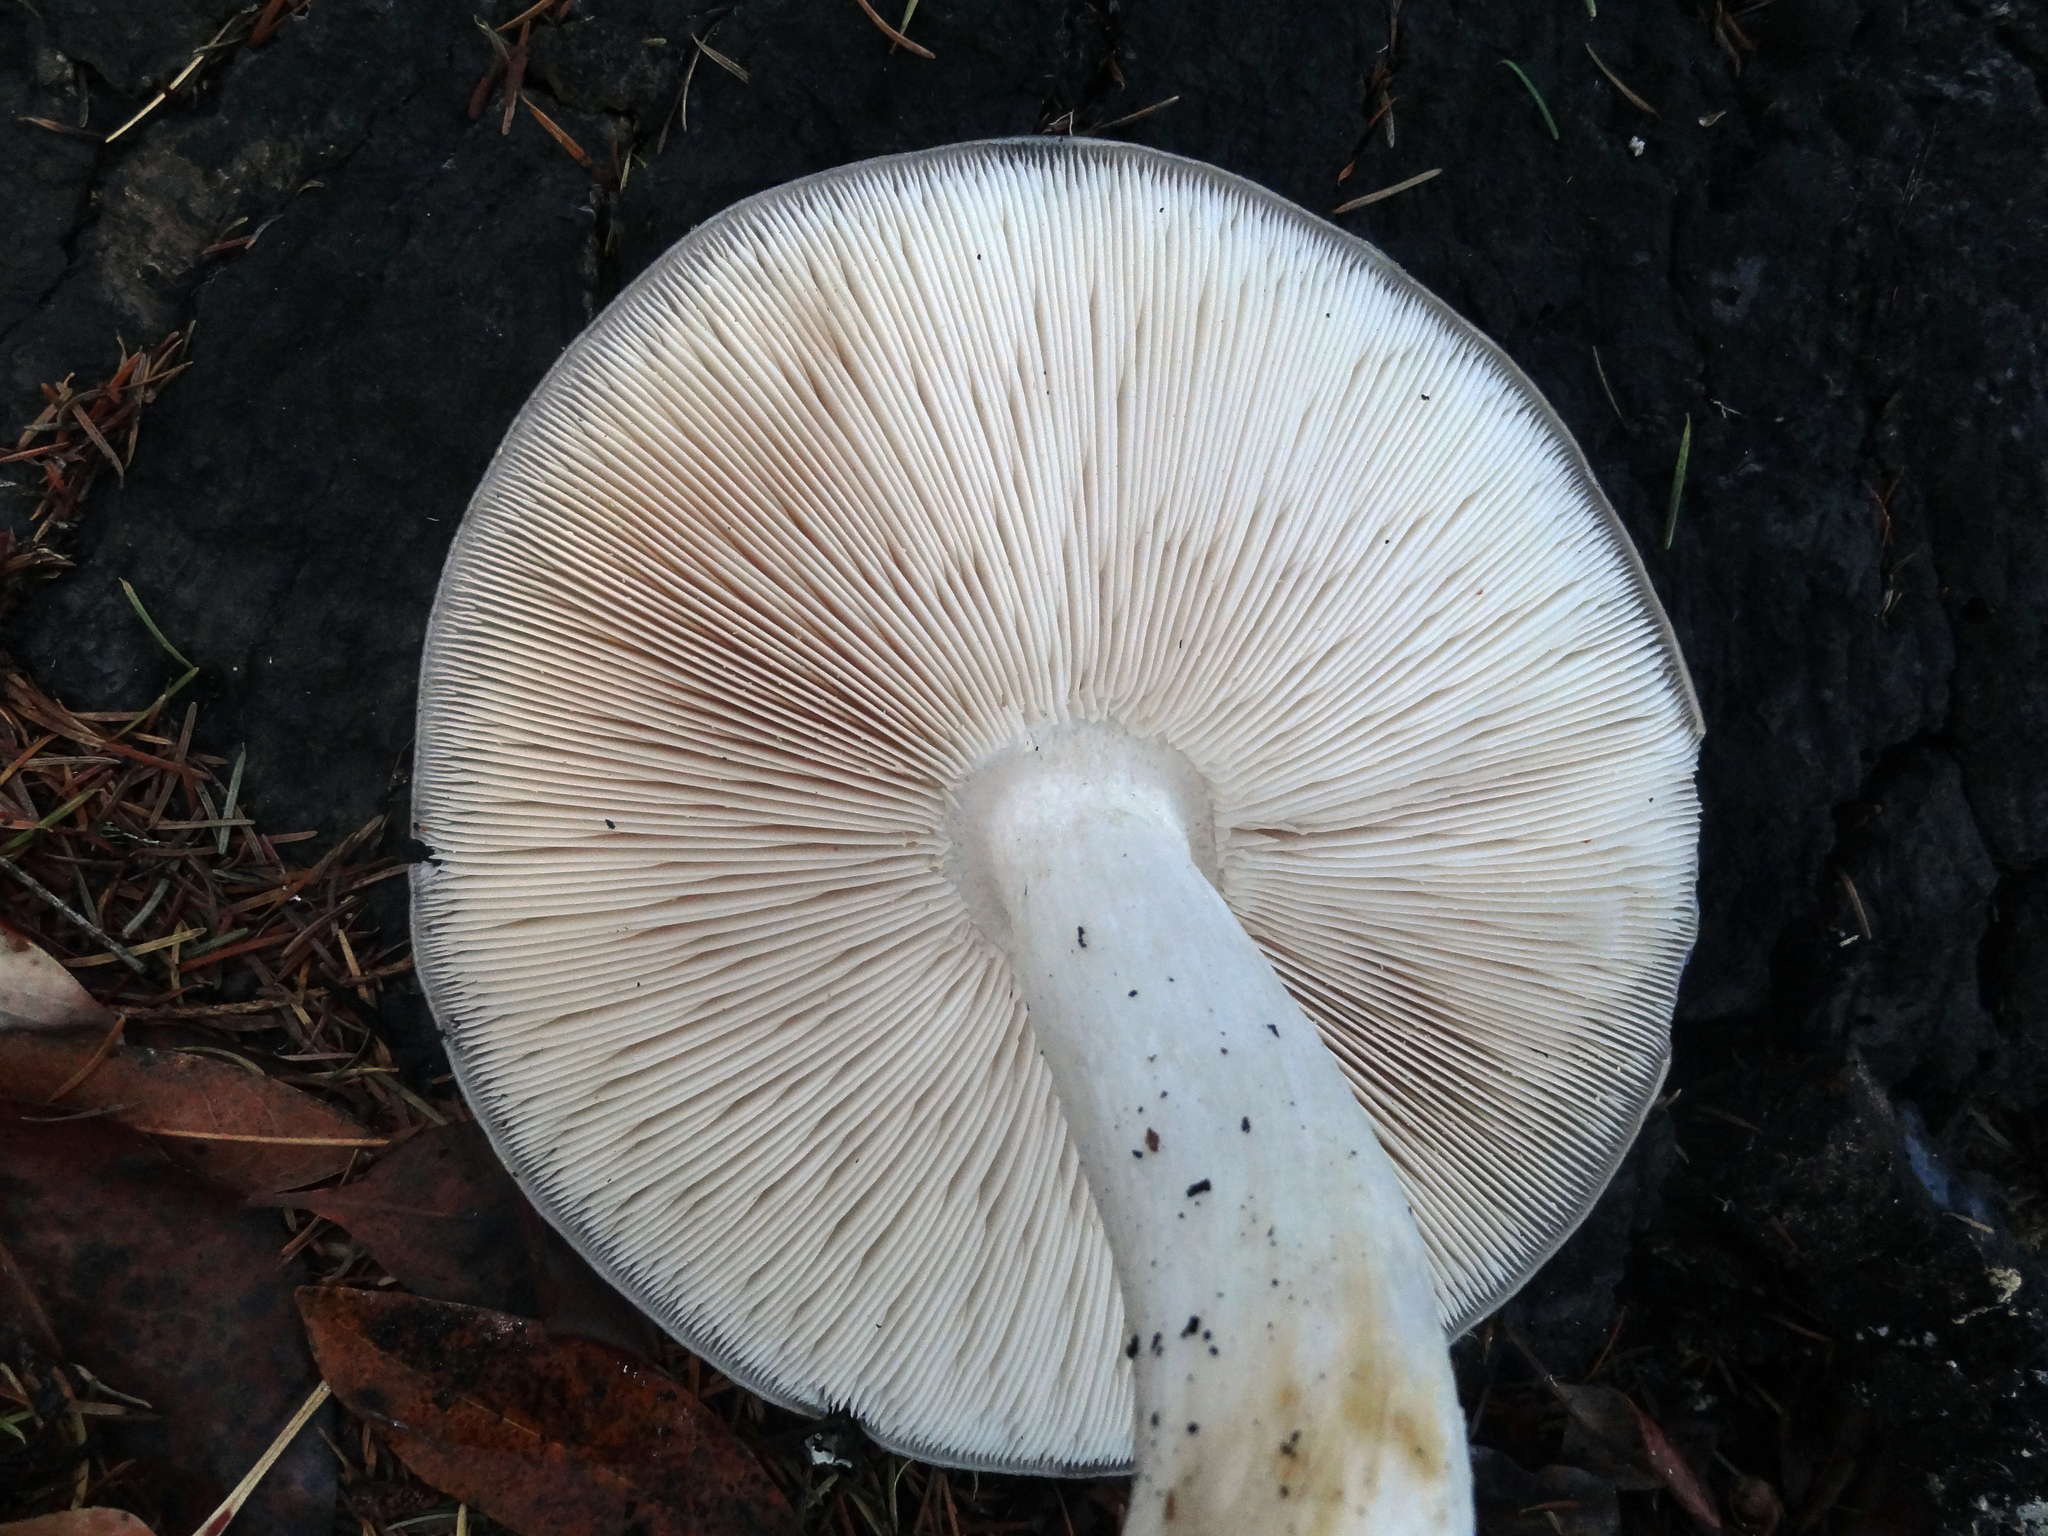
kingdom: Fungi
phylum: Basidiomycota
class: Agaricomycetes
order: Agaricales
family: Pluteaceae
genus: Pluteus
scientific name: Pluteus cervinus
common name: Deer shield
